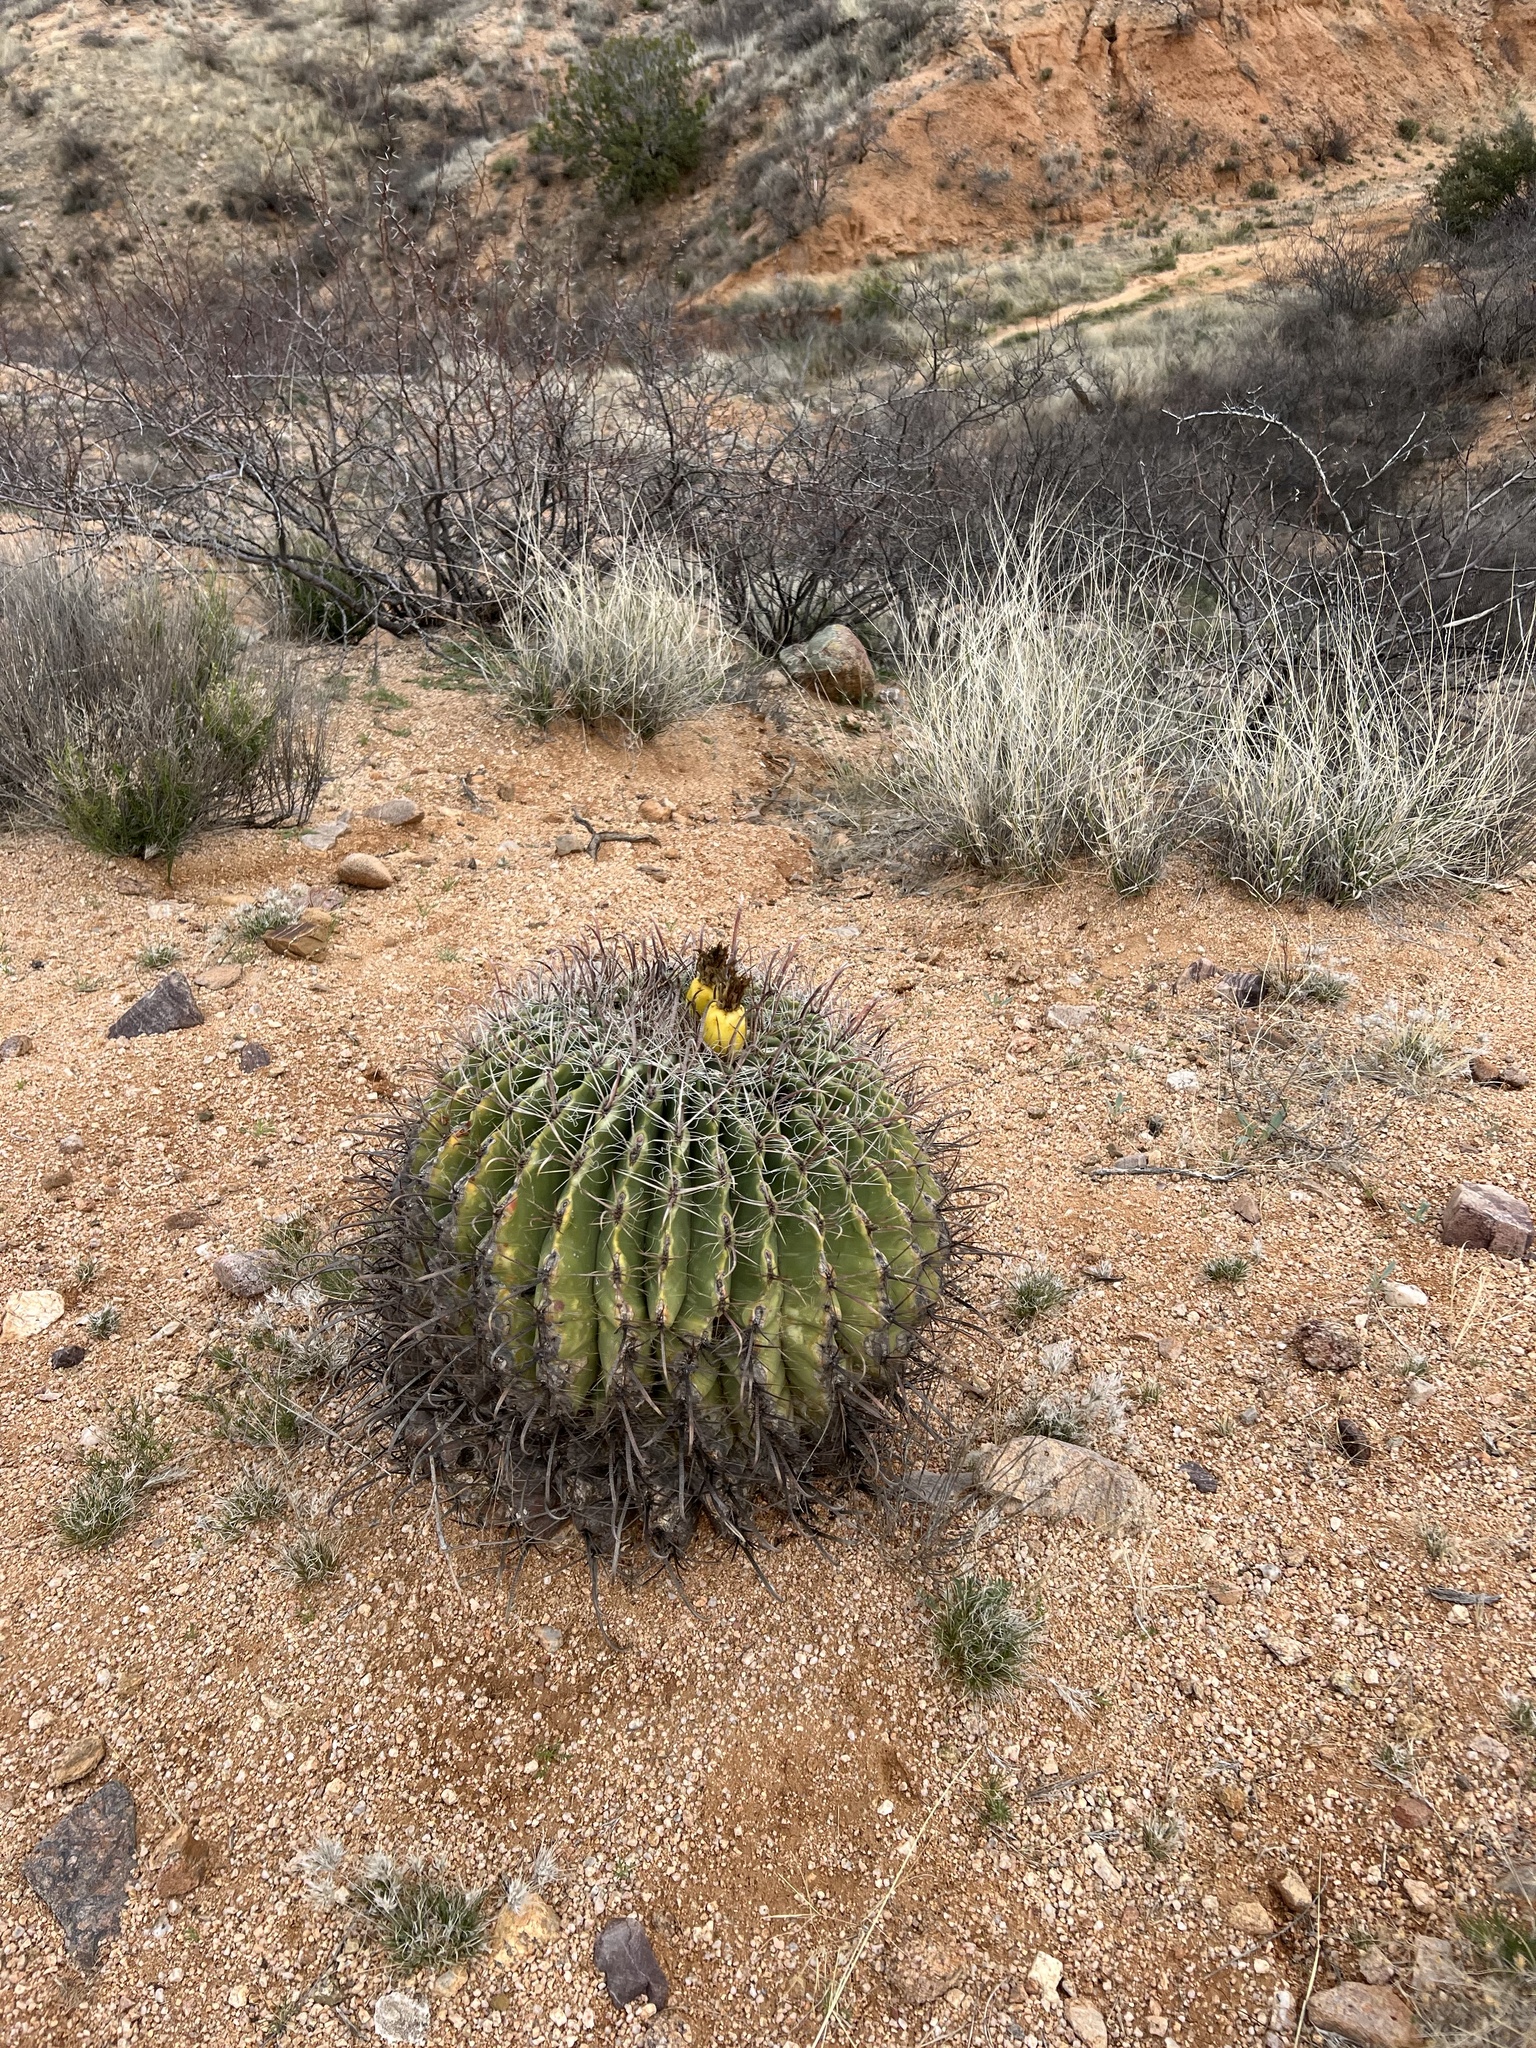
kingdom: Plantae
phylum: Tracheophyta
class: Magnoliopsida
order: Caryophyllales
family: Cactaceae
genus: Ferocactus
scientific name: Ferocactus wislizeni
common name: Candy barrel cactus
